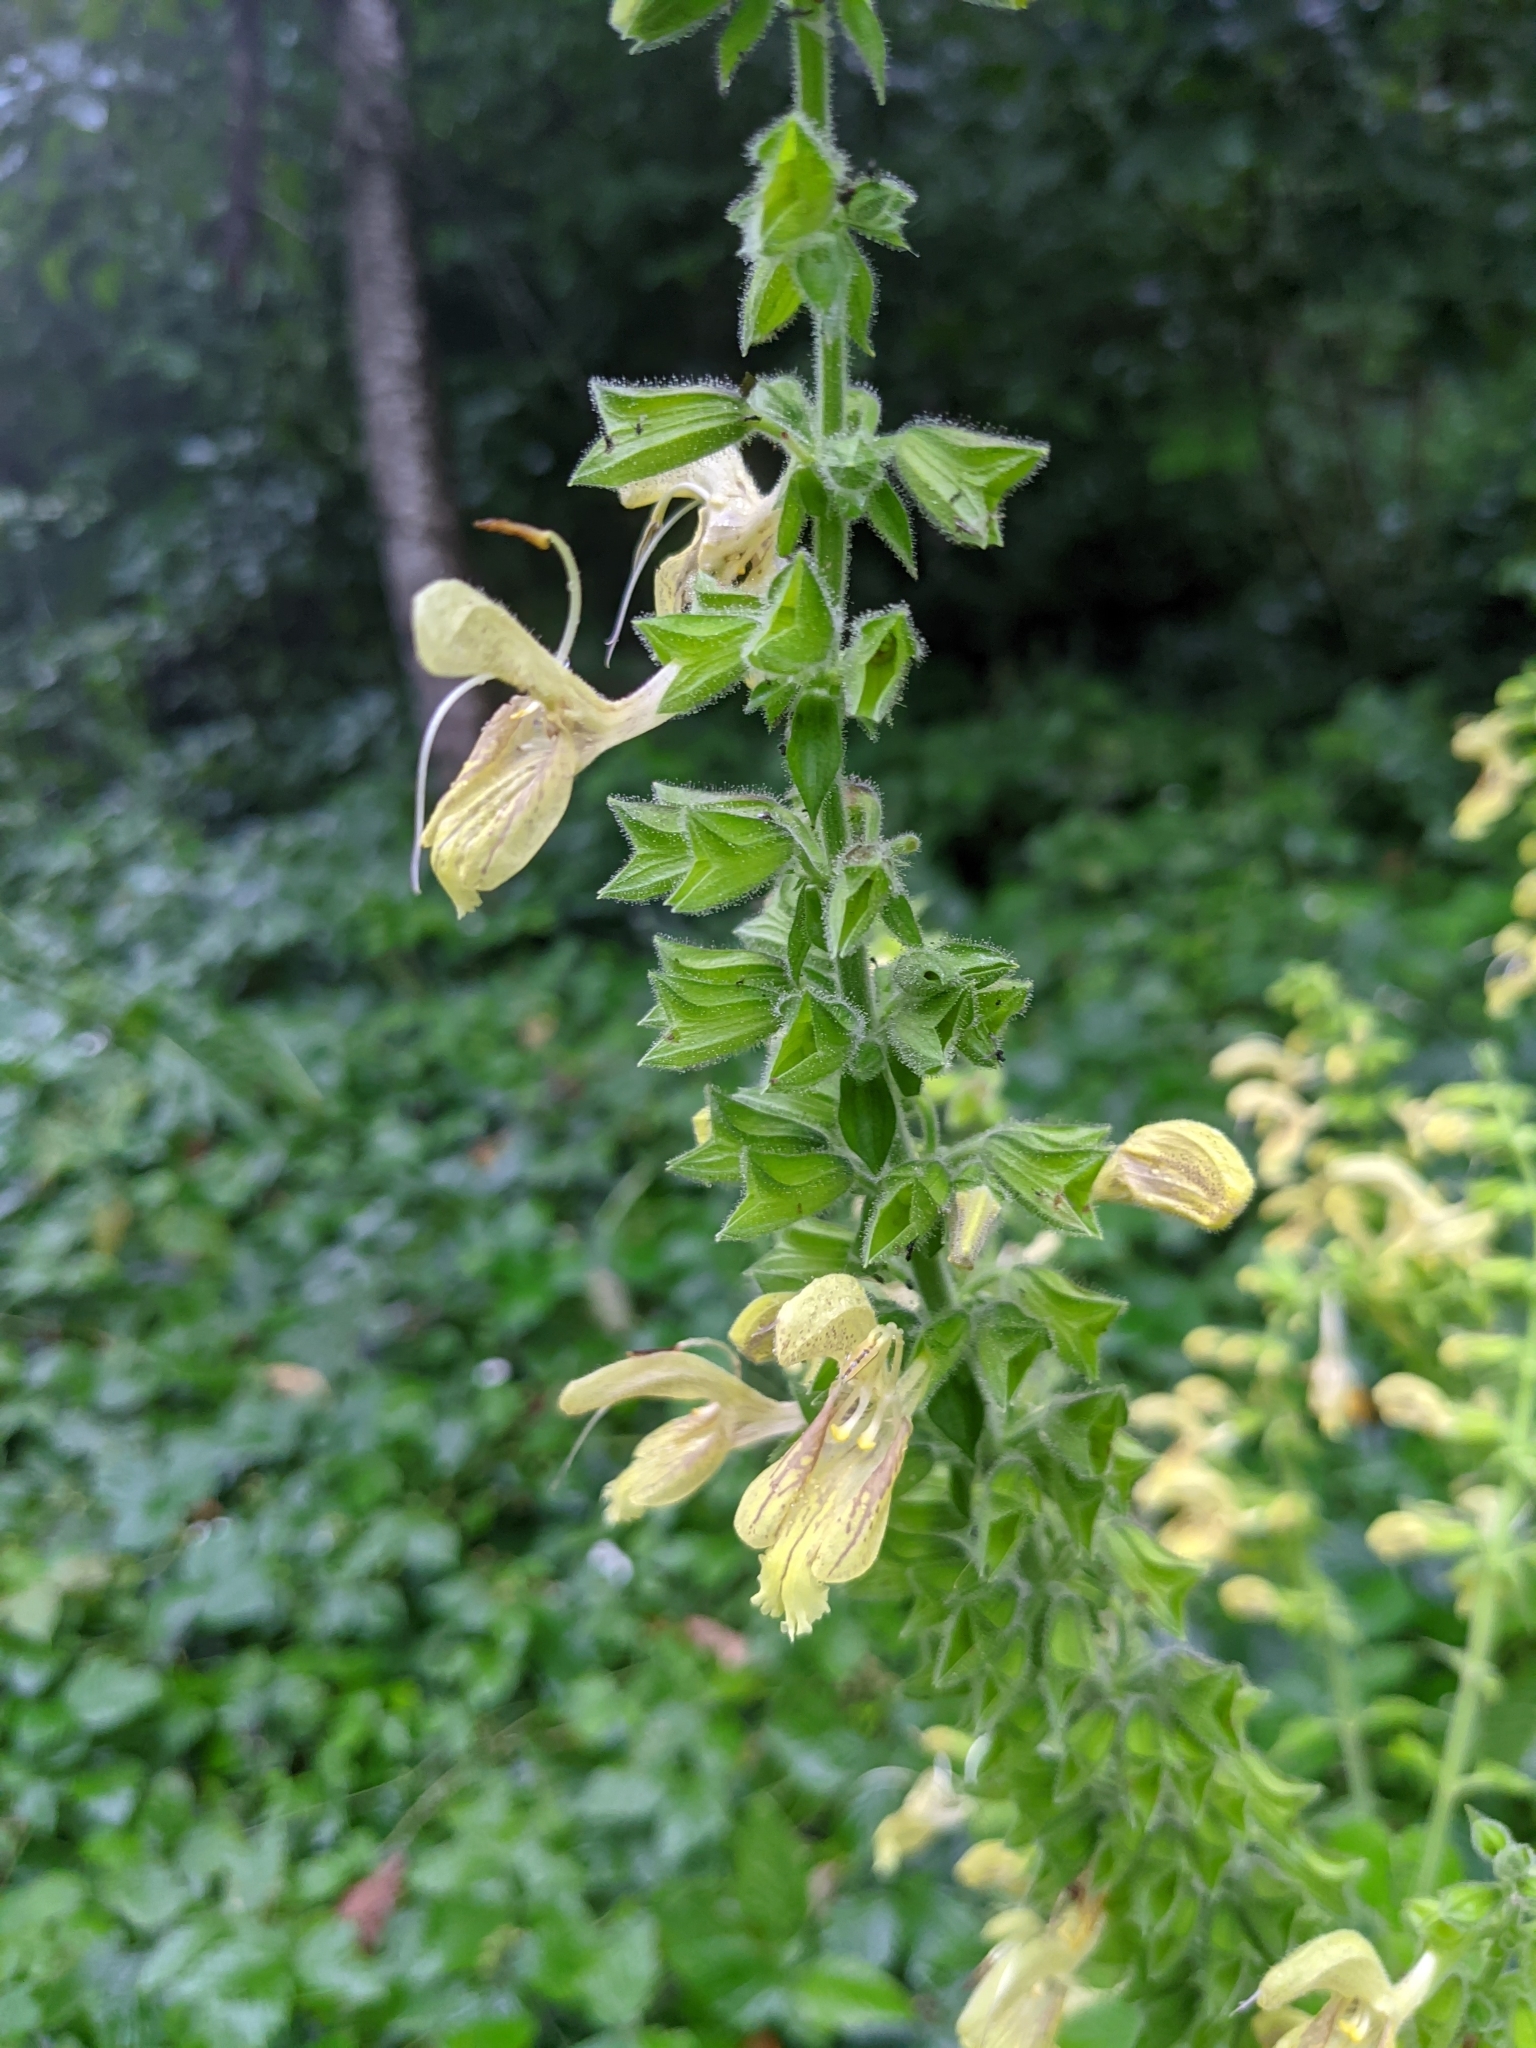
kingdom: Plantae
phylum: Tracheophyta
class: Magnoliopsida
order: Lamiales
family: Lamiaceae
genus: Salvia
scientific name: Salvia glutinosa
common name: Sticky clary
